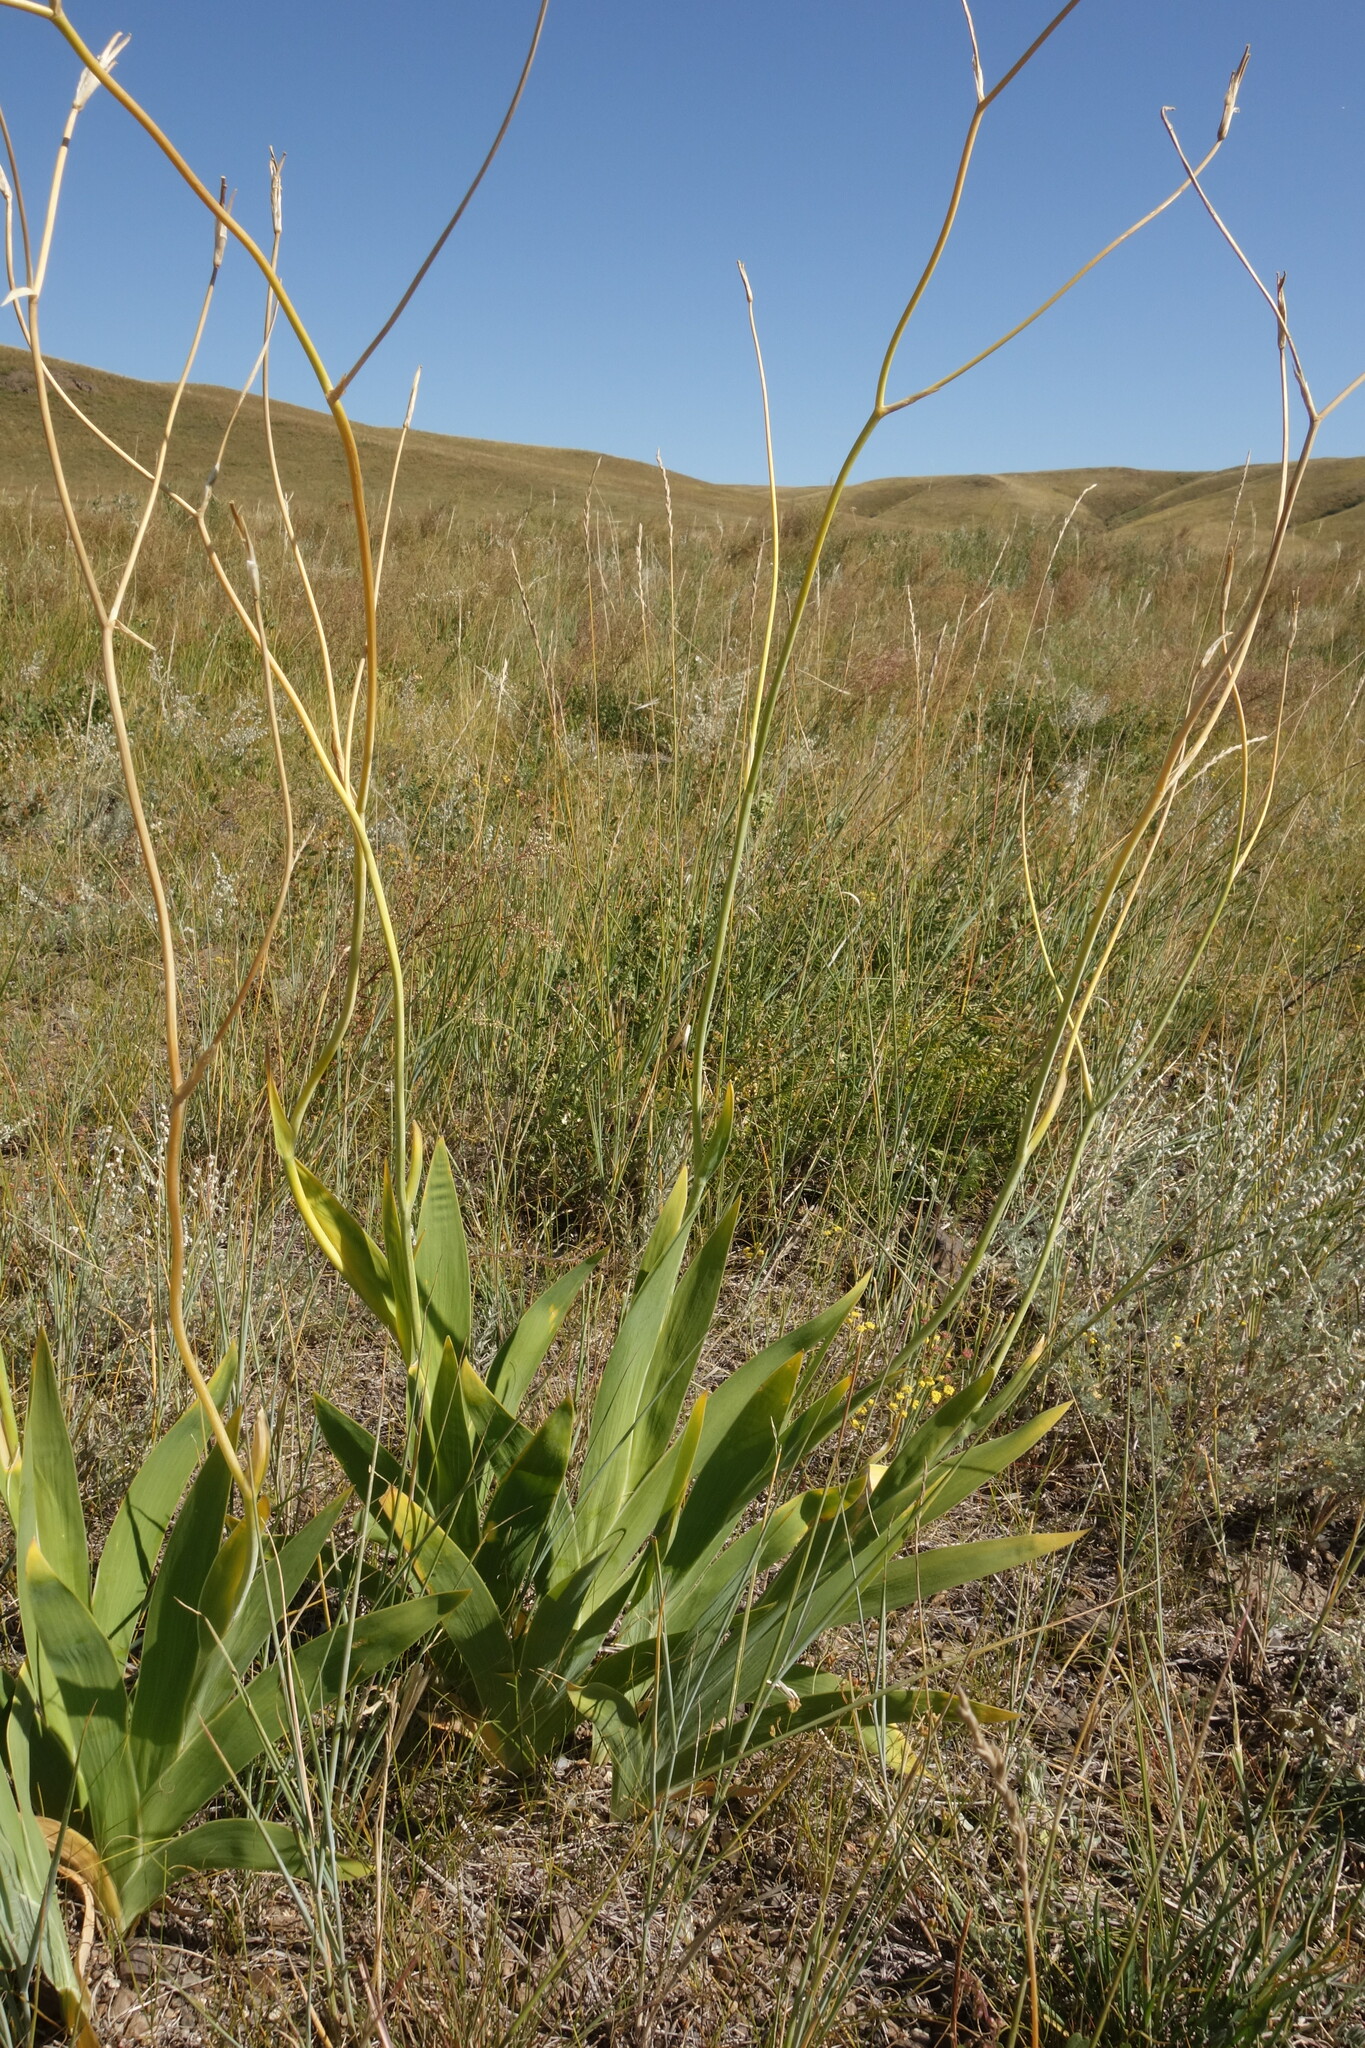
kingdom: Plantae
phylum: Tracheophyta
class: Liliopsida
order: Asparagales
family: Iridaceae
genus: Iris
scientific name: Iris dichotoma
